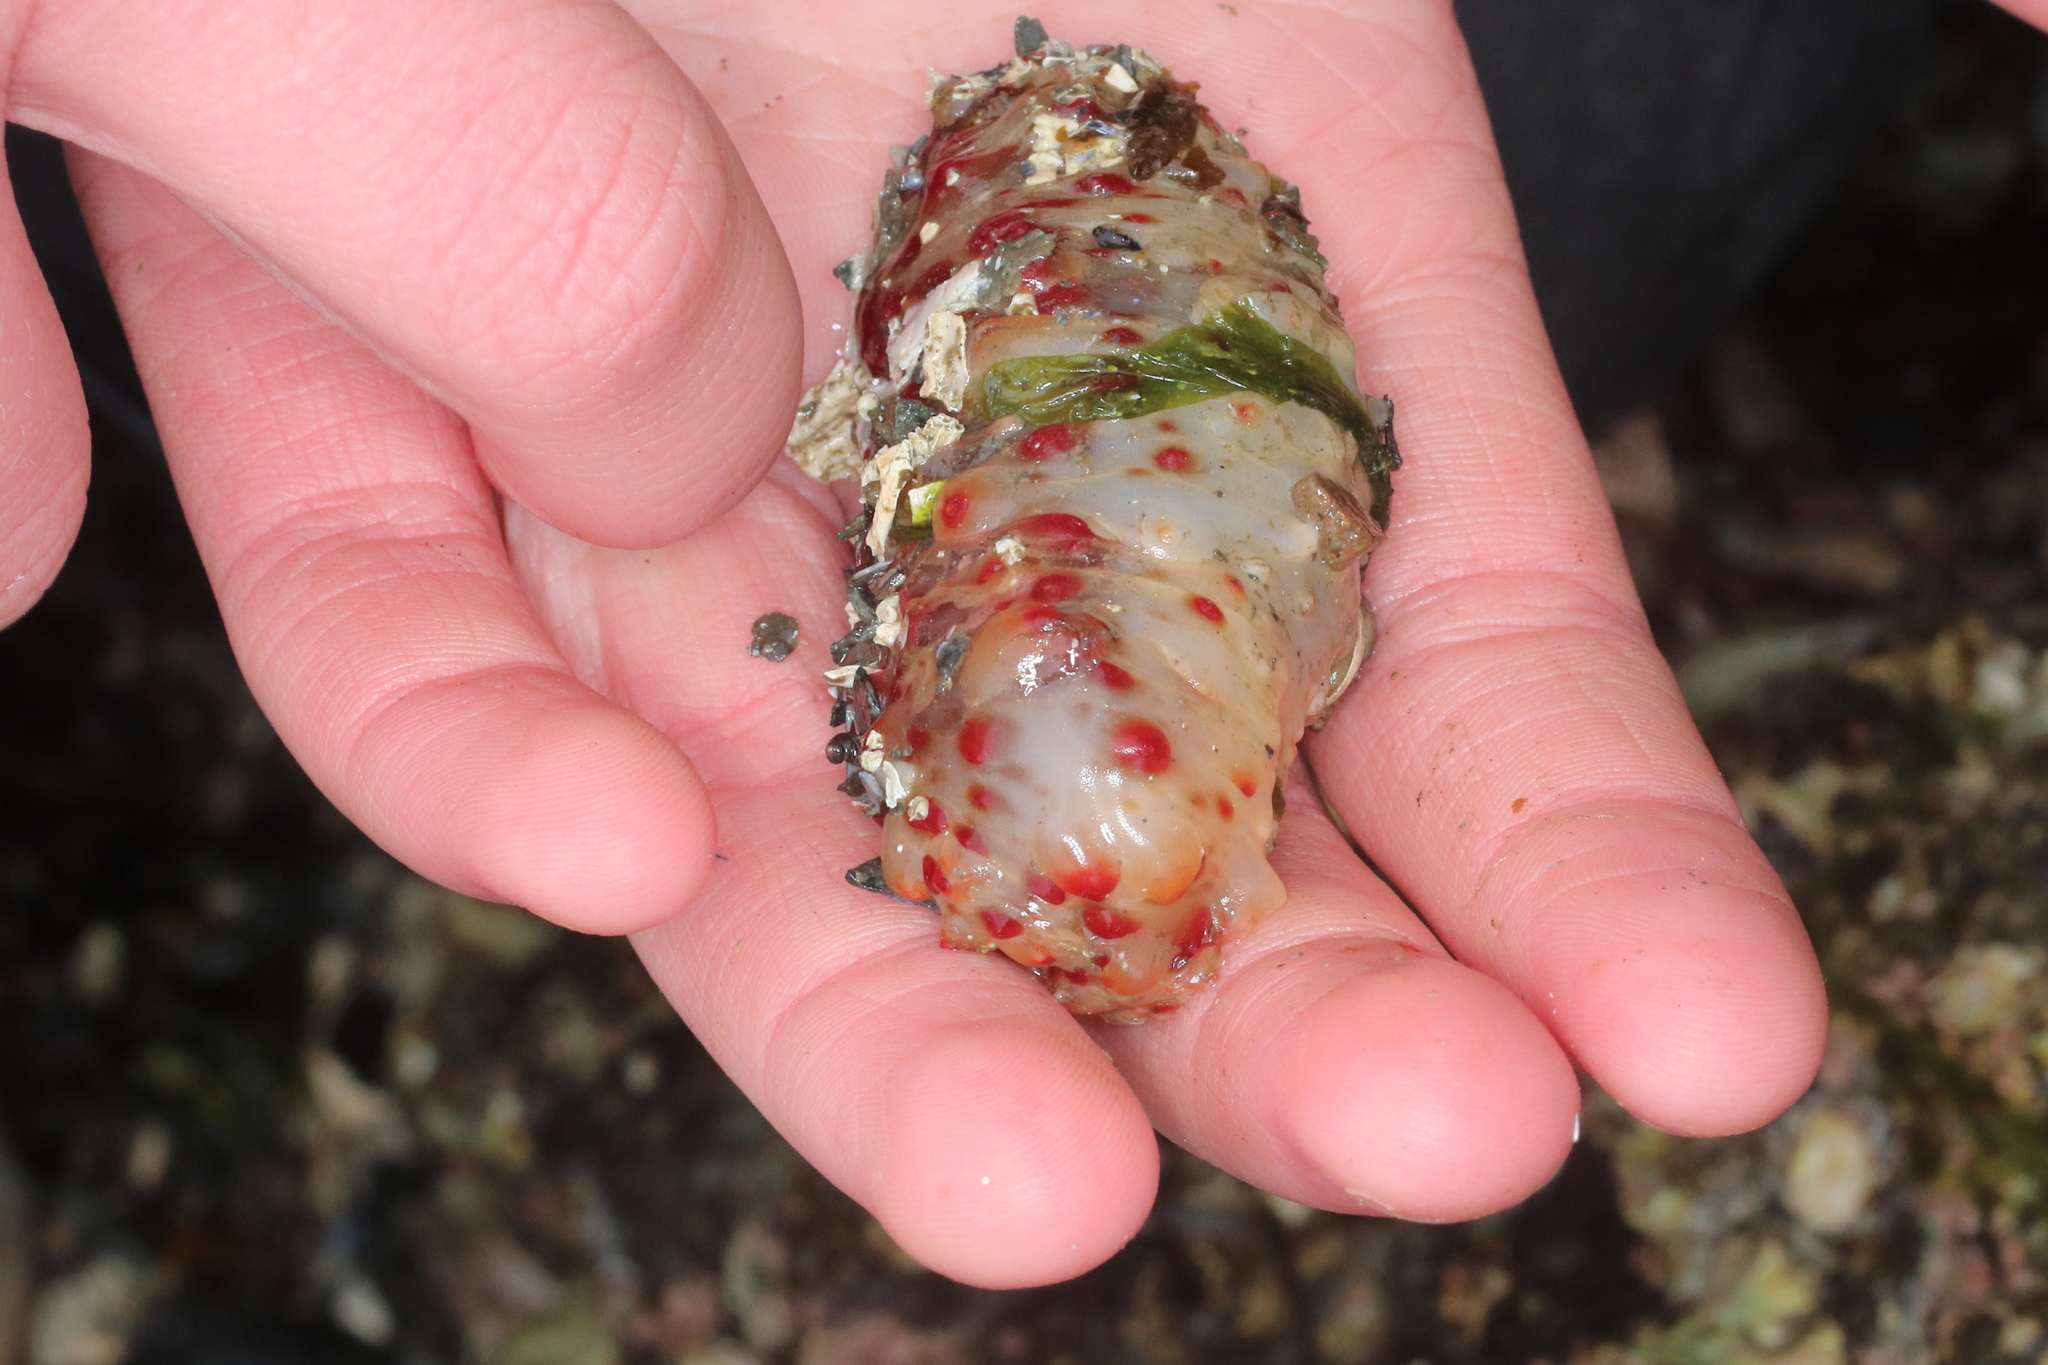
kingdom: Animalia
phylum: Echinodermata
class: Holothuroidea
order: Synallactida
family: Stichopodidae
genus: Apostichopus
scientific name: Apostichopus californicus
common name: California sea cucumber
